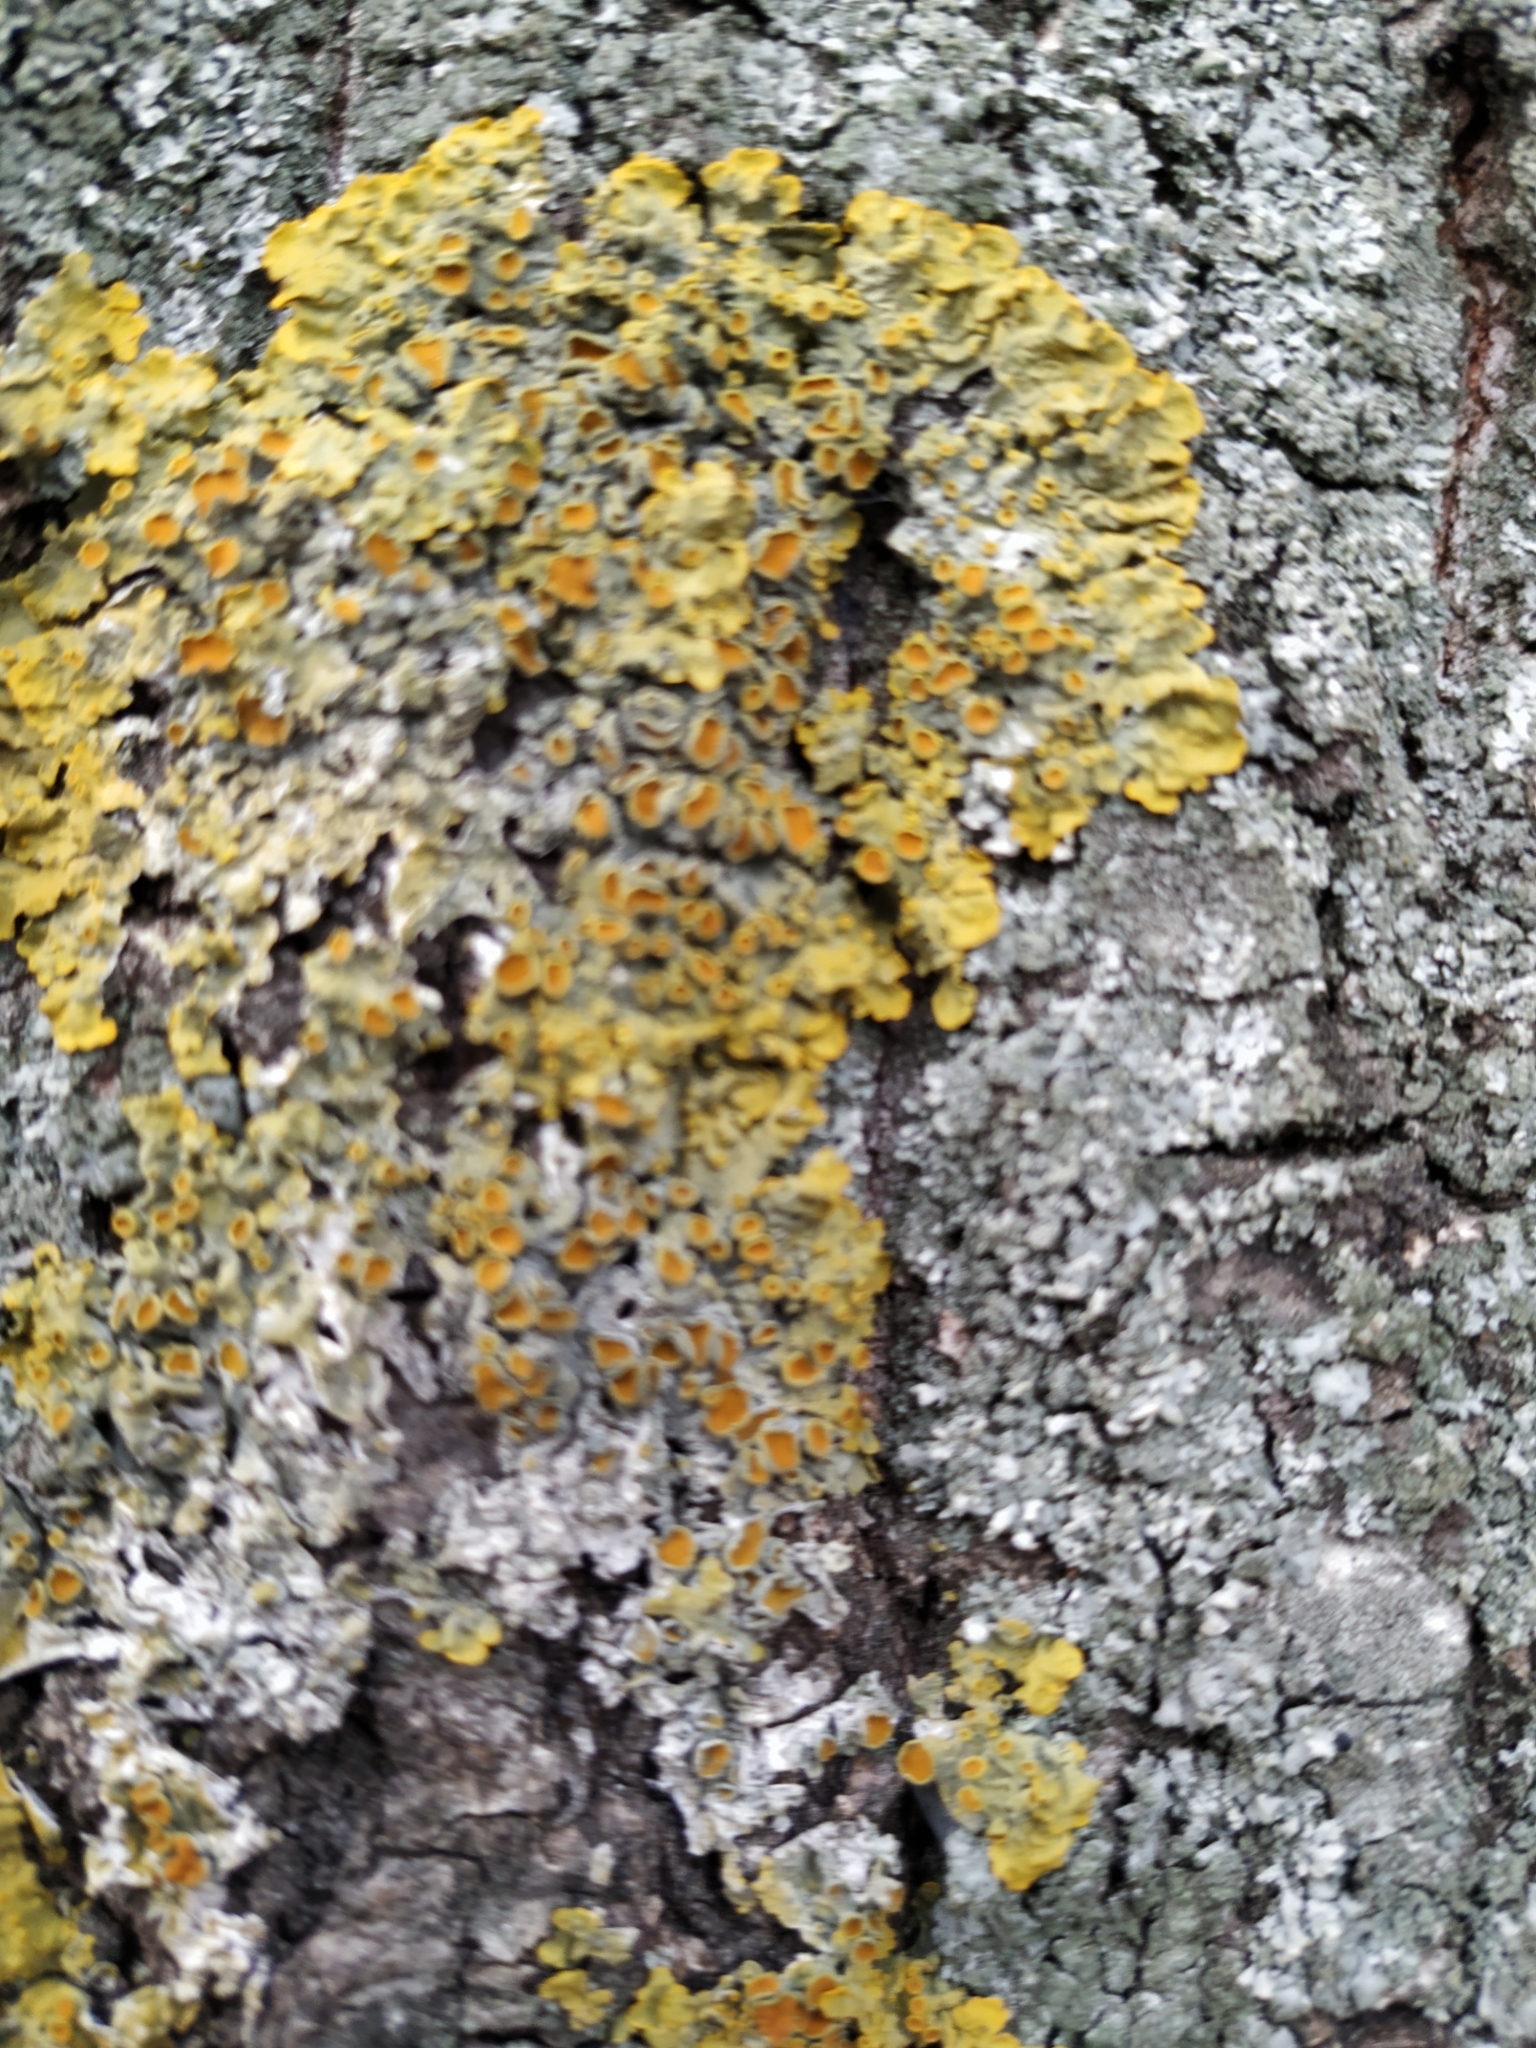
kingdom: Fungi
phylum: Ascomycota
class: Lecanoromycetes
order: Teloschistales
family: Teloschistaceae
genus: Xanthoria
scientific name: Xanthoria parietina
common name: Common orange lichen
